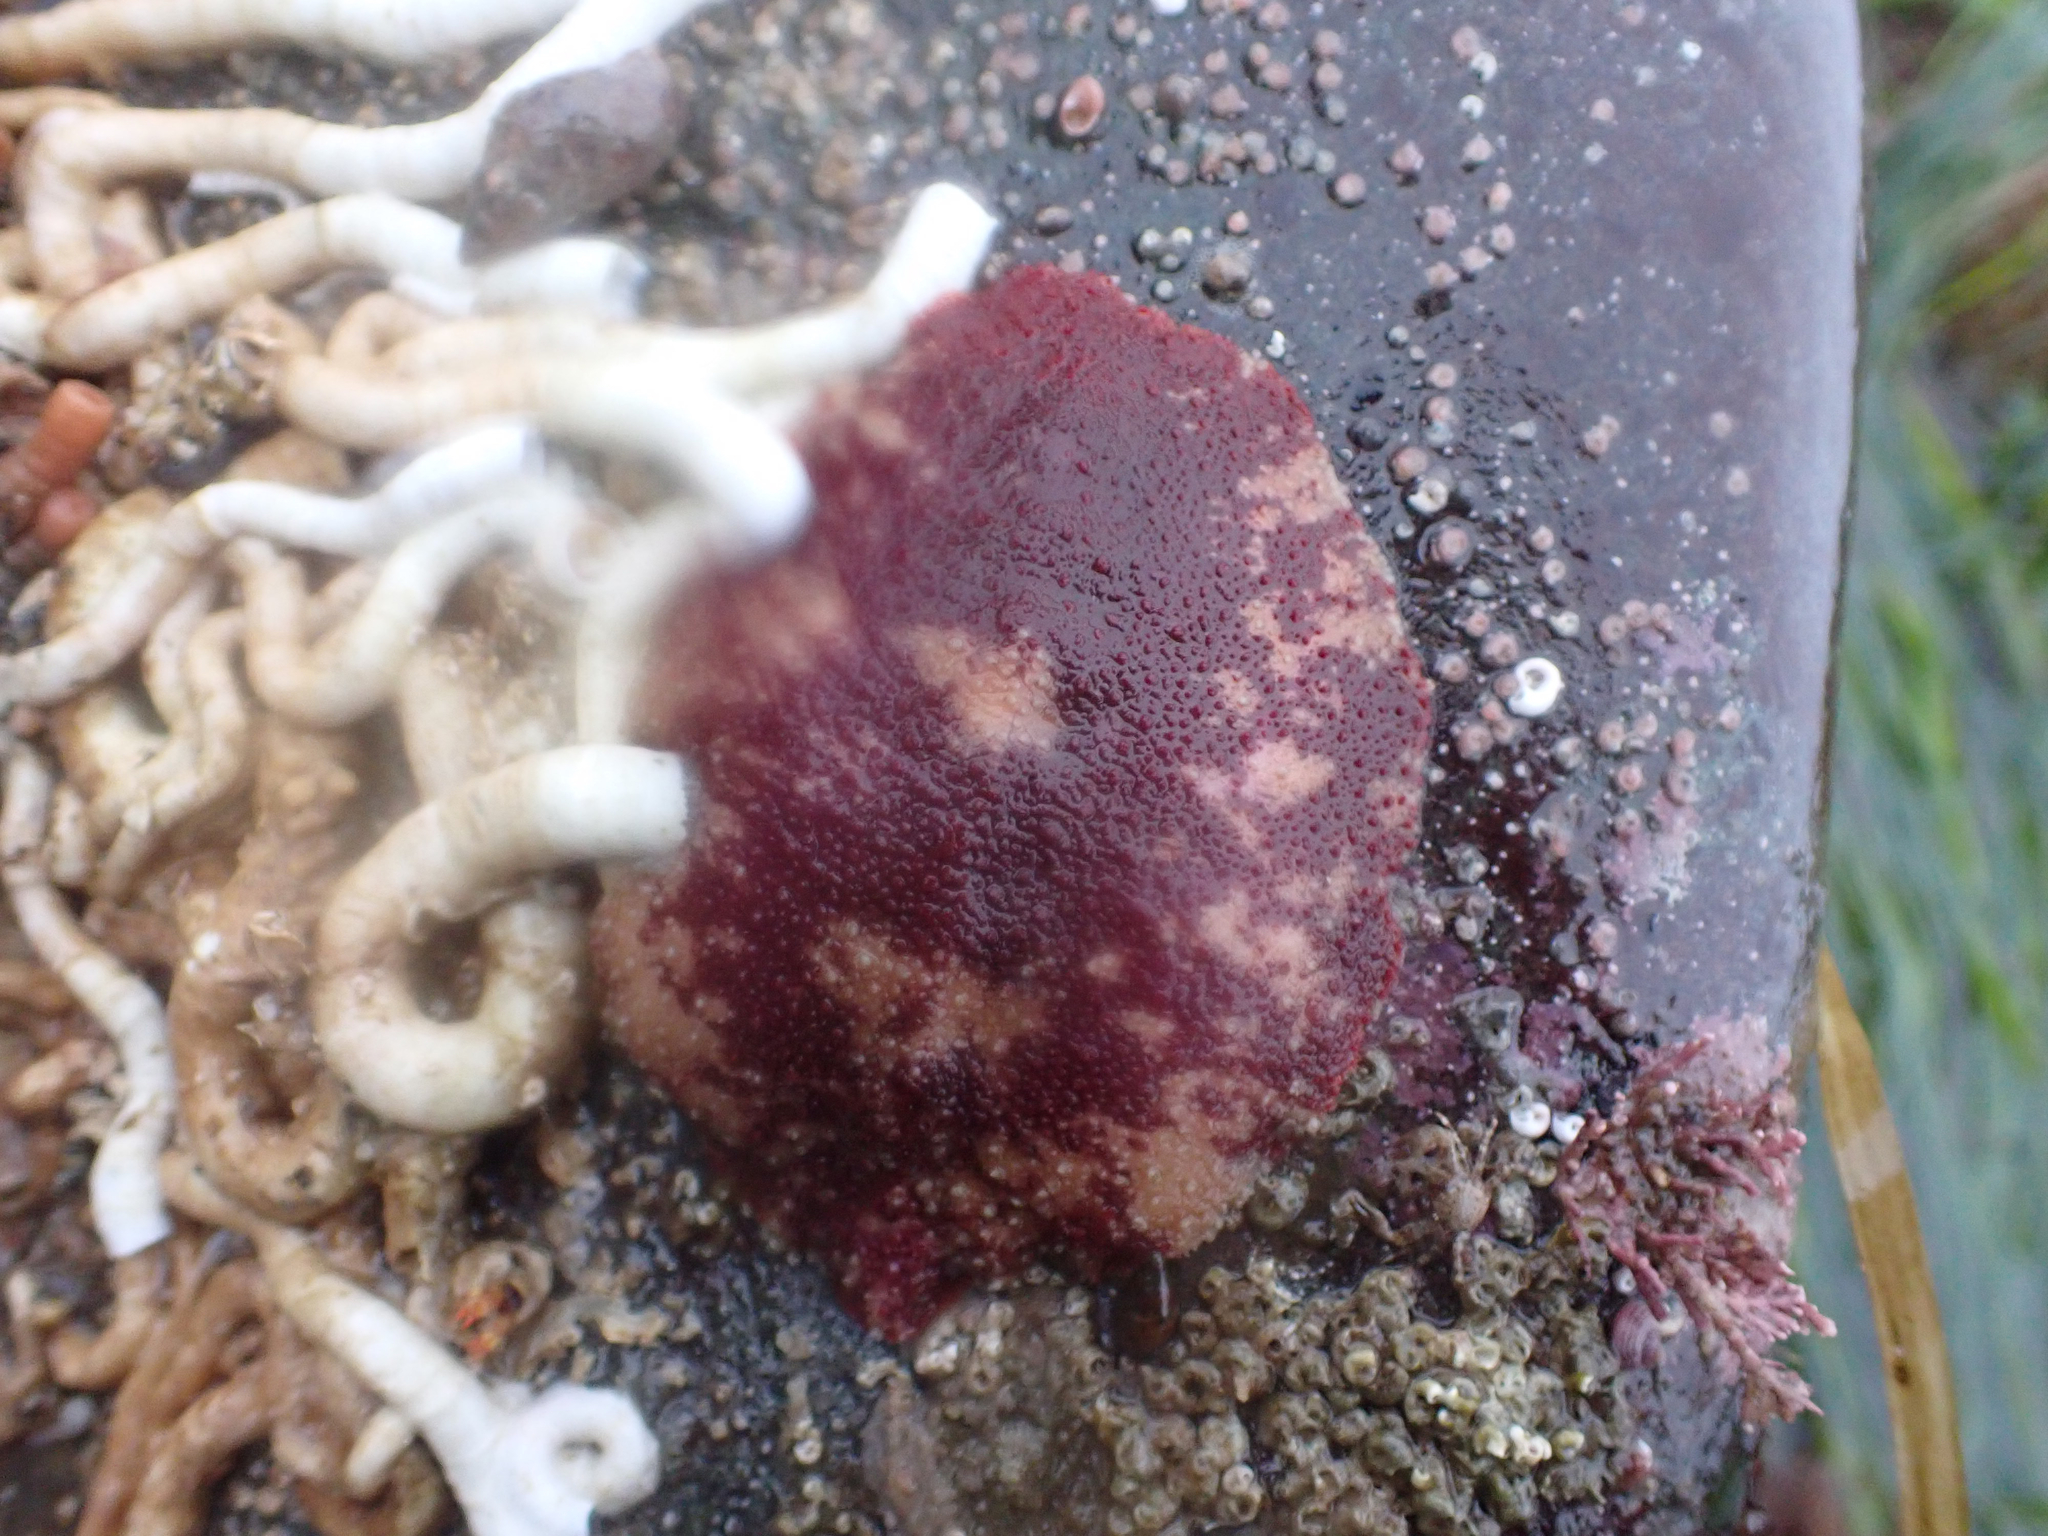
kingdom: Animalia
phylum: Mollusca
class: Polyplacophora
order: Chitonida
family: Acanthochitonidae
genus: Cryptochiton
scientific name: Cryptochiton stelleri
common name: Giant pacific chiton
